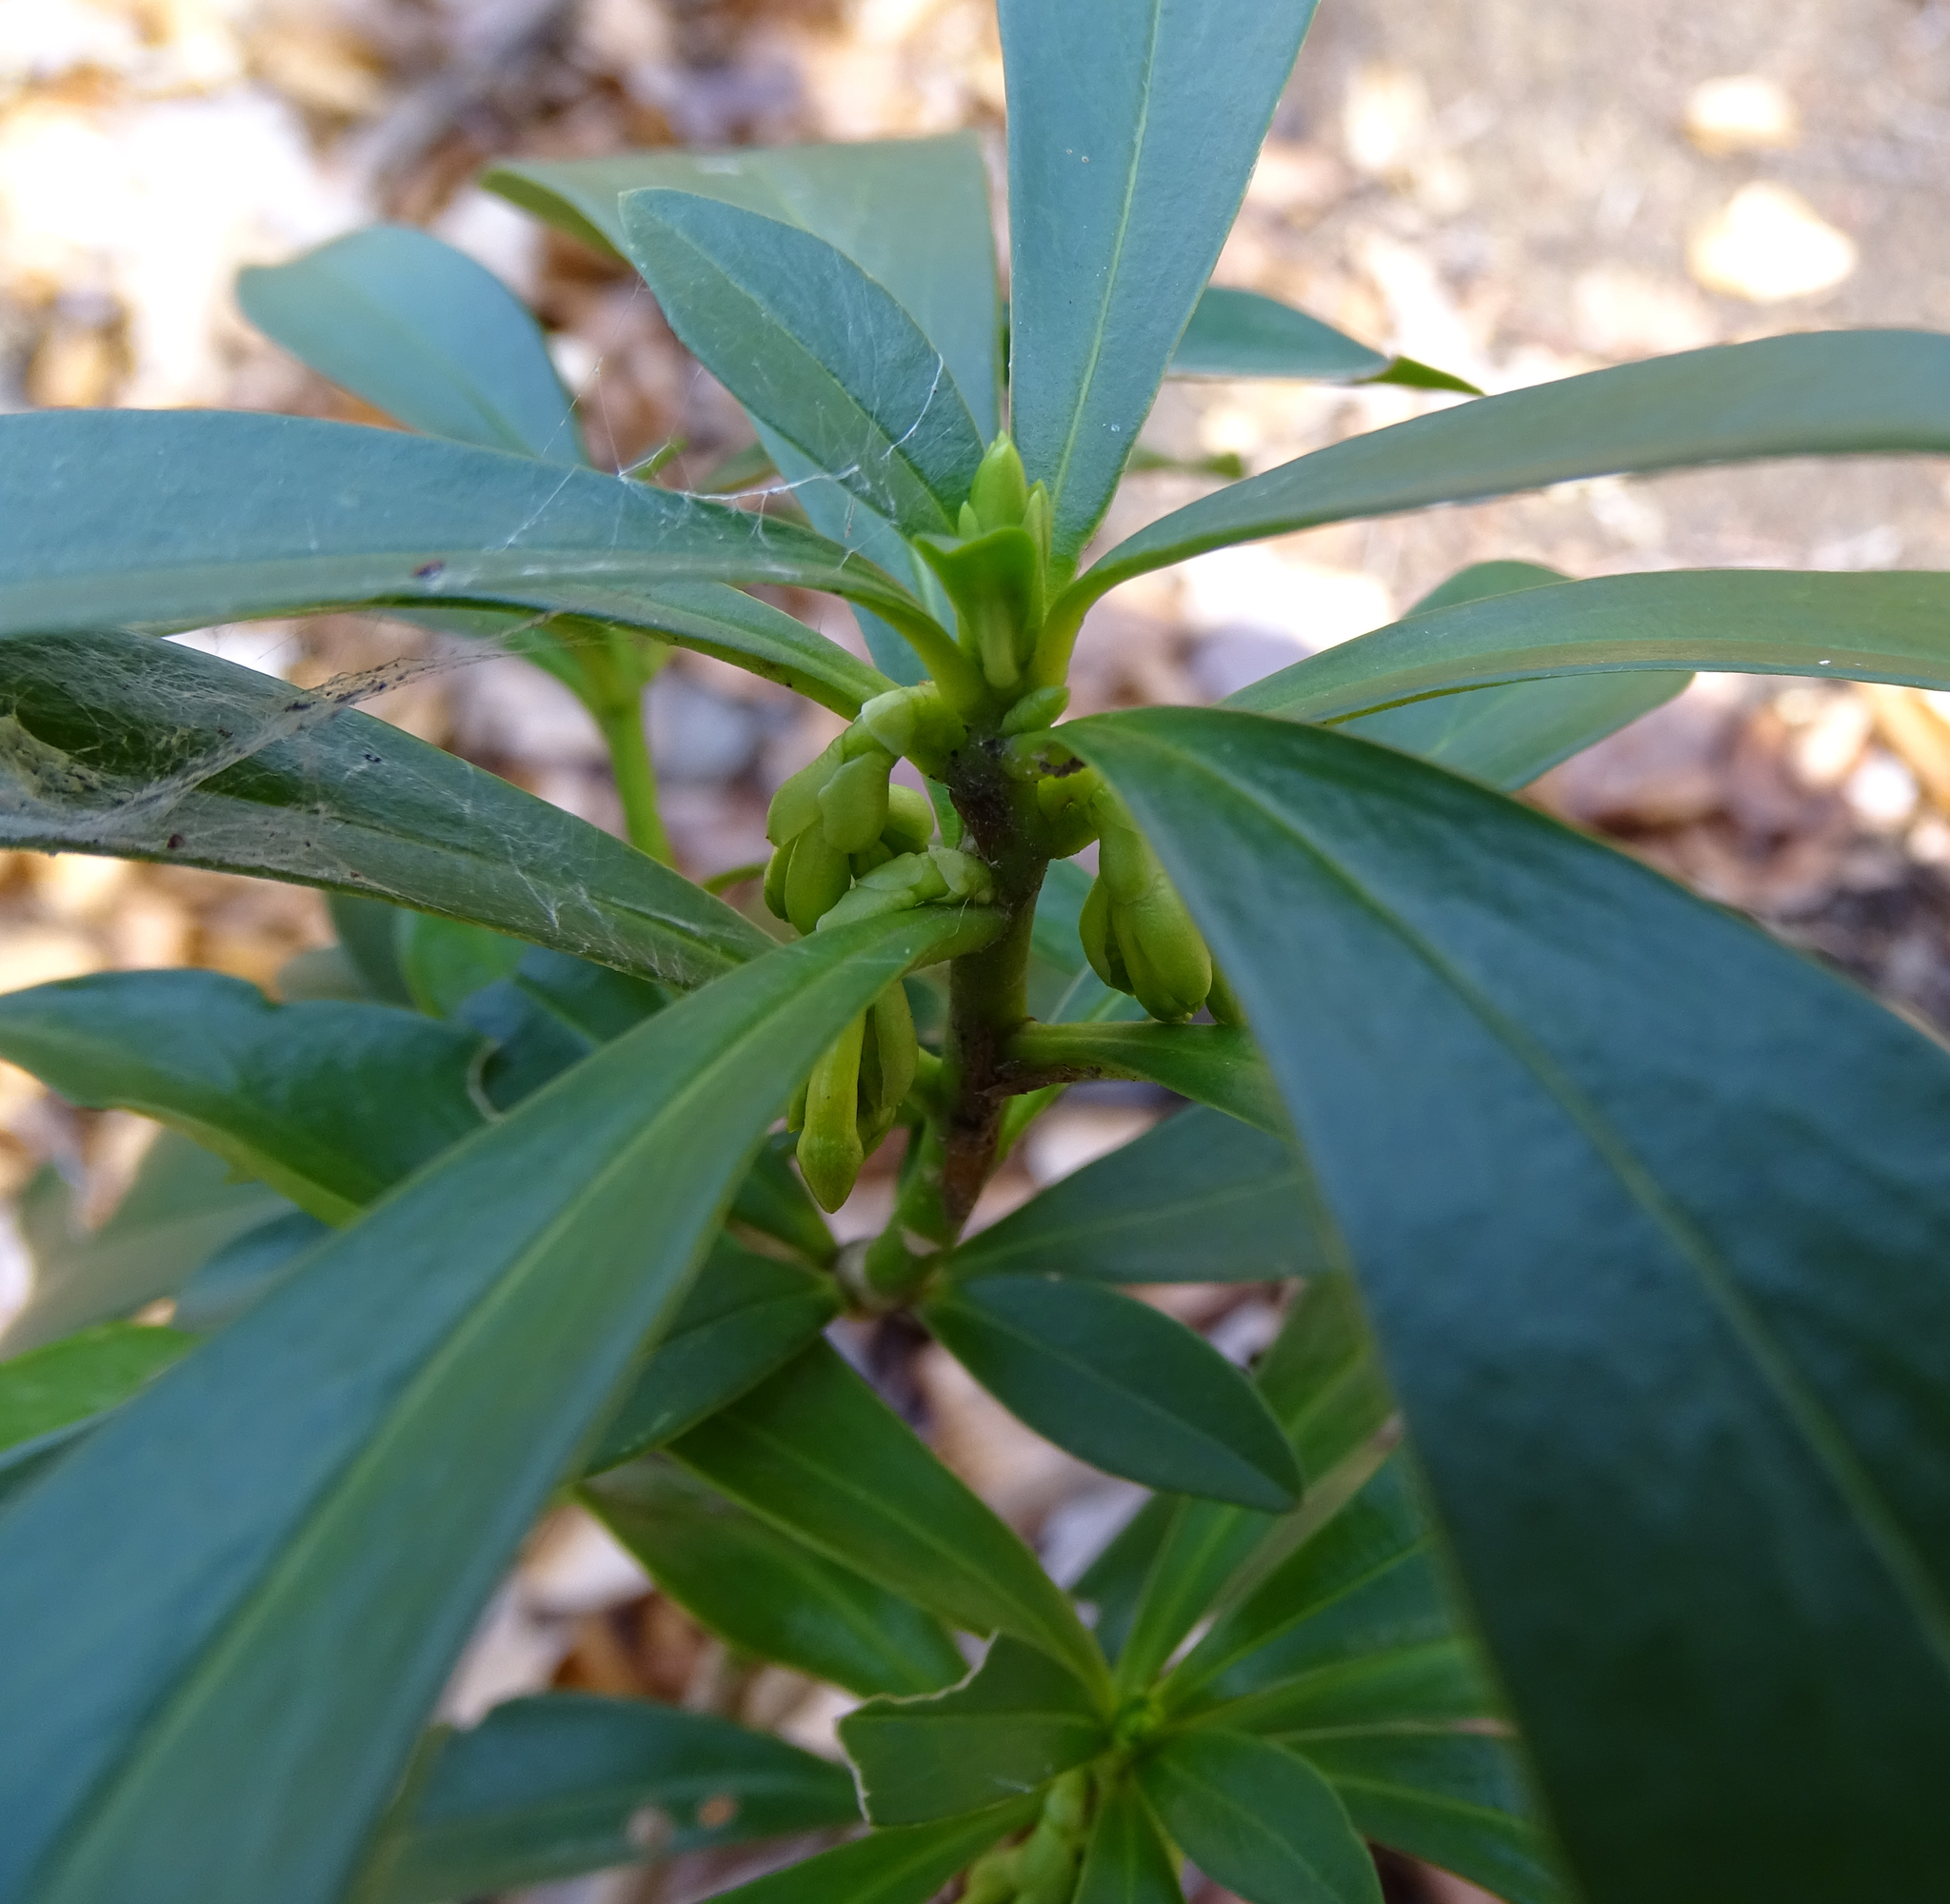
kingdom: Plantae
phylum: Tracheophyta
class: Magnoliopsida
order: Malvales
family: Thymelaeaceae
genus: Daphne
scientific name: Daphne laureola
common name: Spurge-laurel
